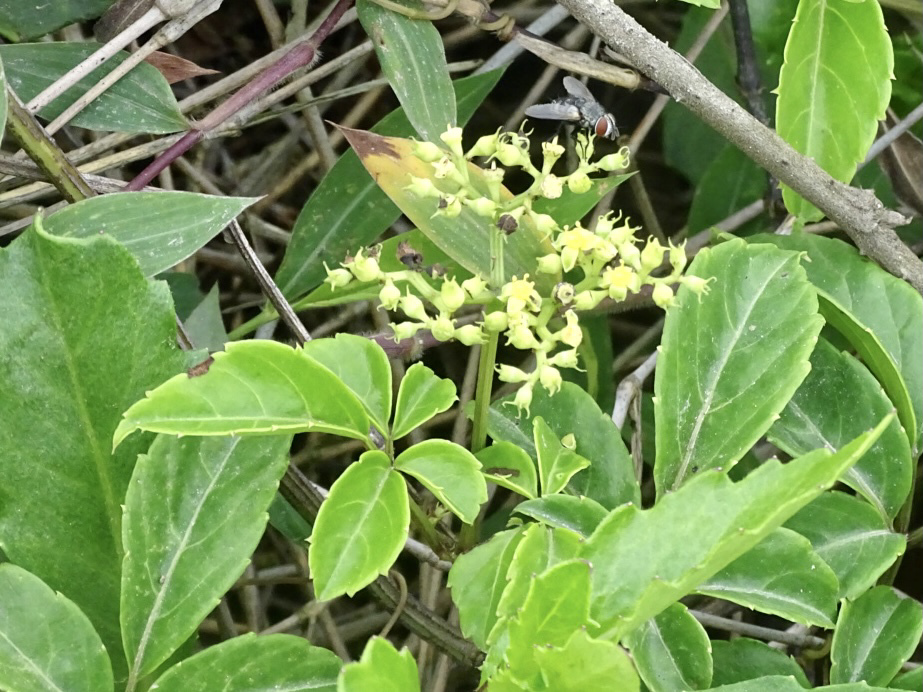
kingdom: Plantae
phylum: Tracheophyta
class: Magnoliopsida
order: Vitales
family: Vitaceae
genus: Causonis
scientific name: Causonis japonica
